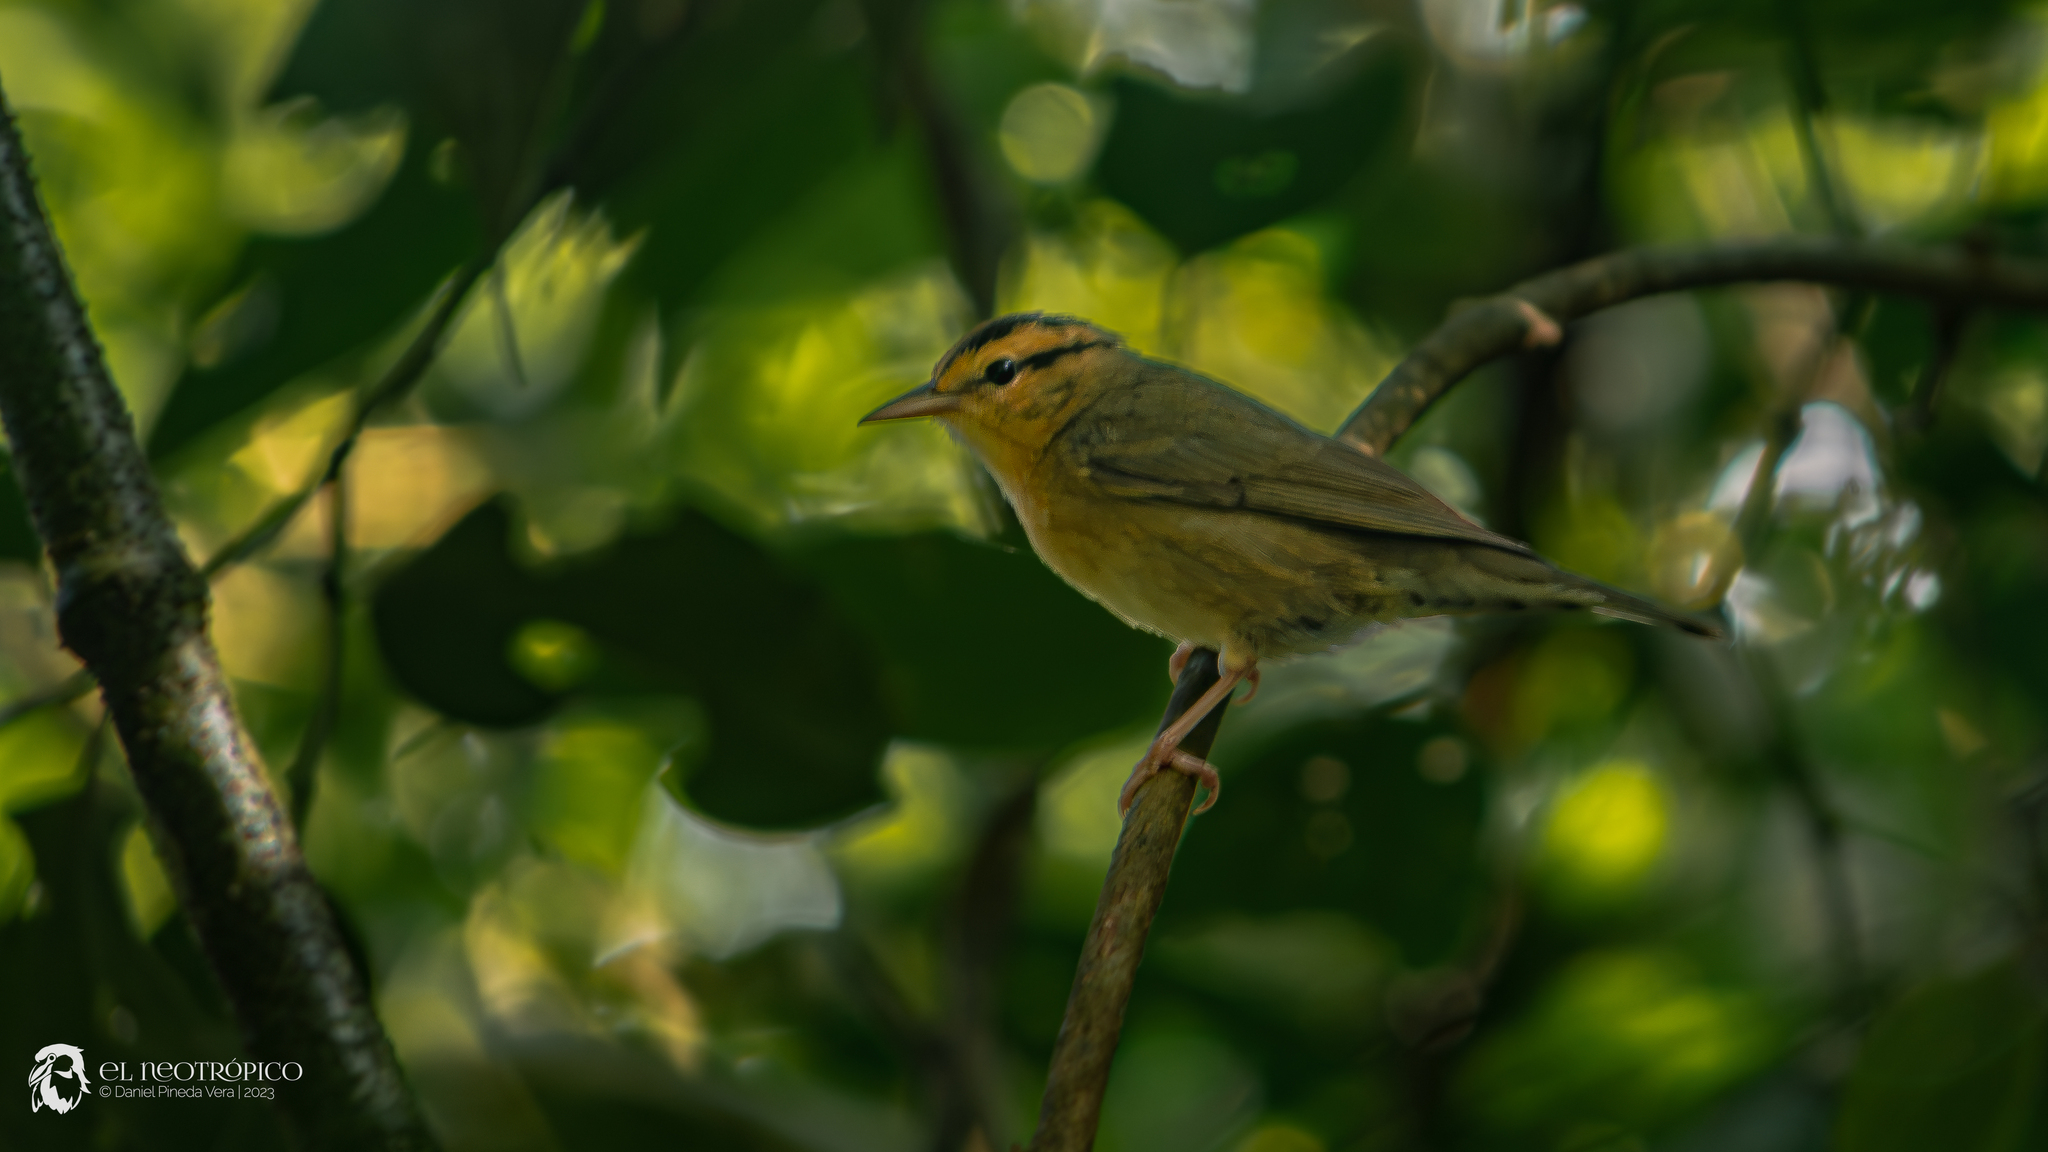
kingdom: Animalia
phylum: Chordata
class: Aves
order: Passeriformes
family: Parulidae
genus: Helmitheros
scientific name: Helmitheros vermivorum
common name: Worm-eating warbler
